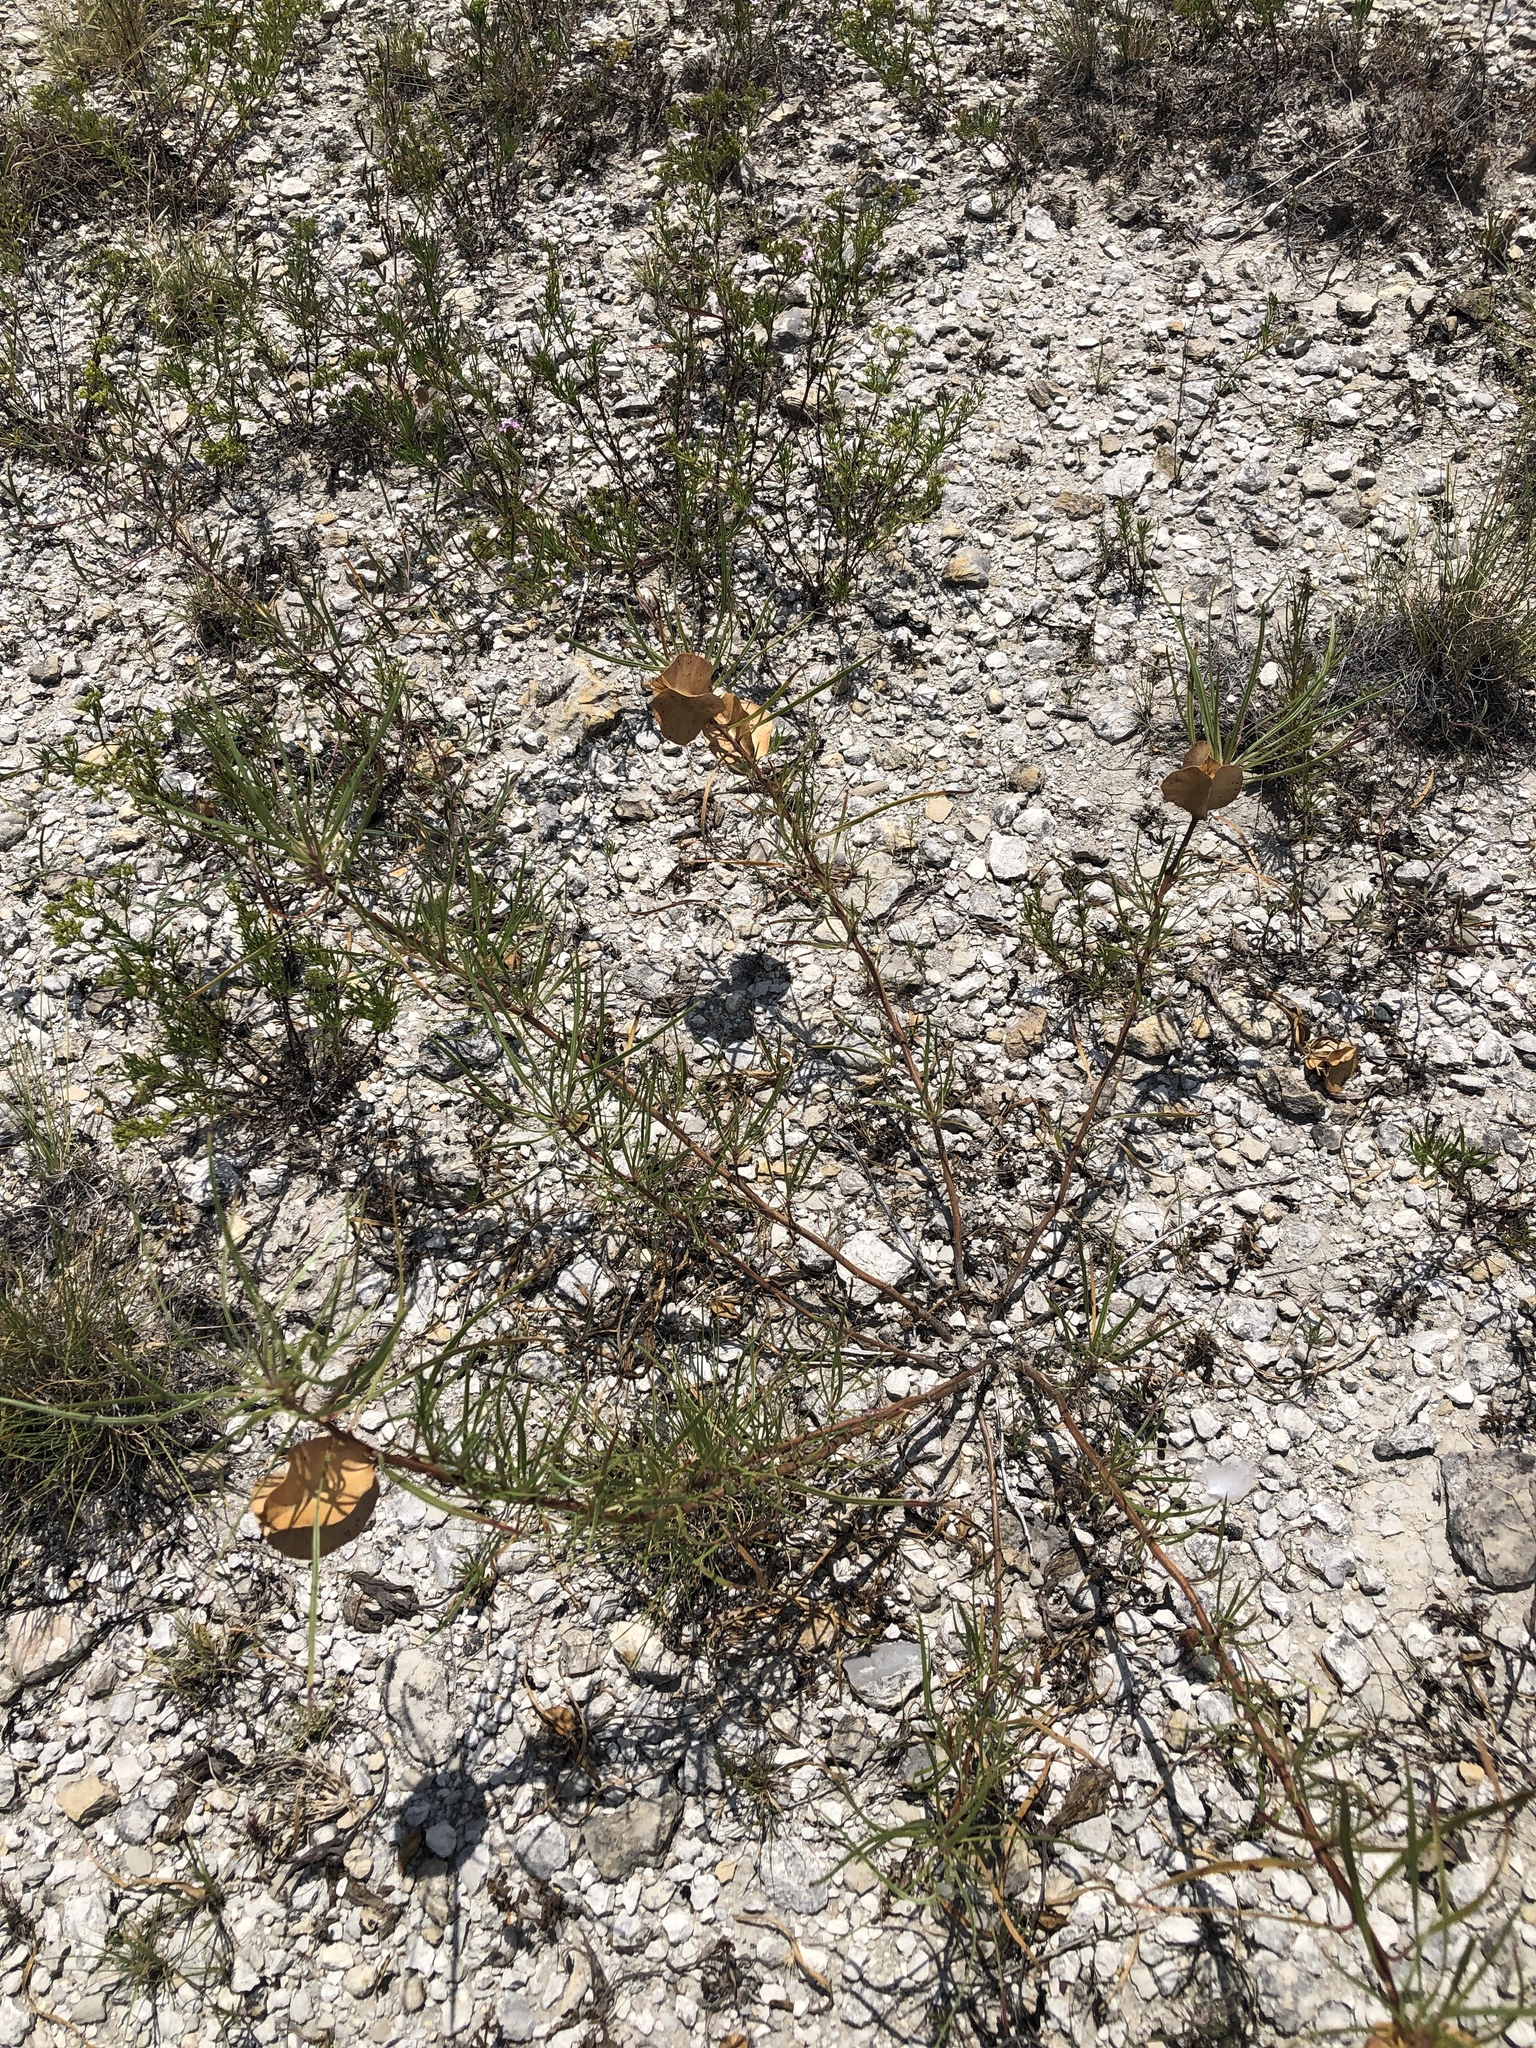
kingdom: Plantae
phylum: Tracheophyta
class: Magnoliopsida
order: Myrtales
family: Onagraceae
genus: Oenothera
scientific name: Oenothera macrocarpa
